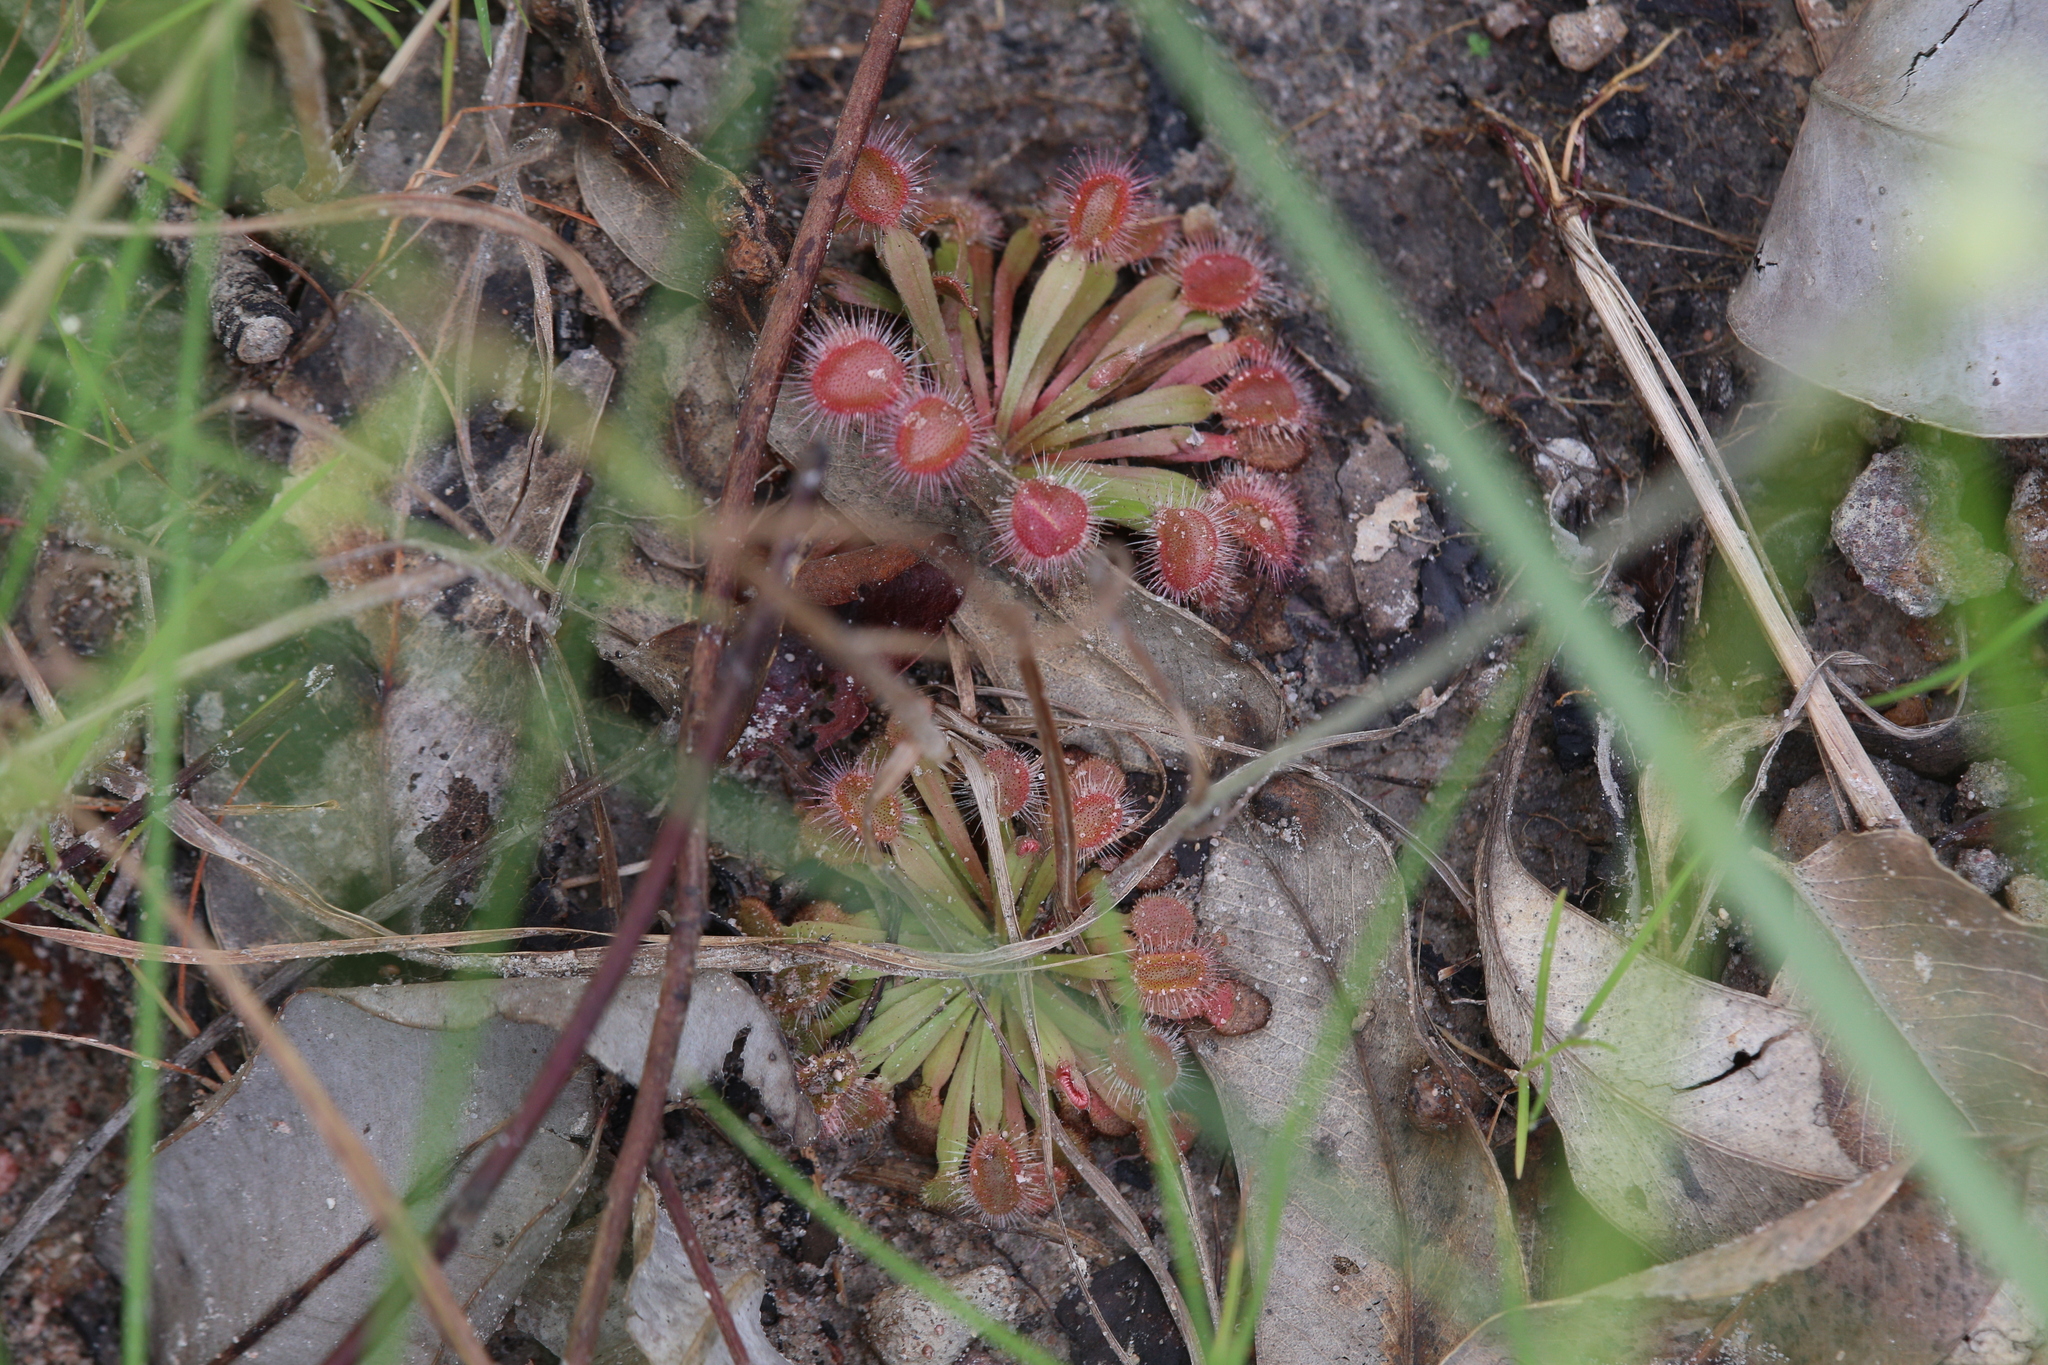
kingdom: Plantae
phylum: Tracheophyta
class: Magnoliopsida
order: Caryophyllales
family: Droseraceae
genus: Drosera
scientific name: Drosera brevicornis
